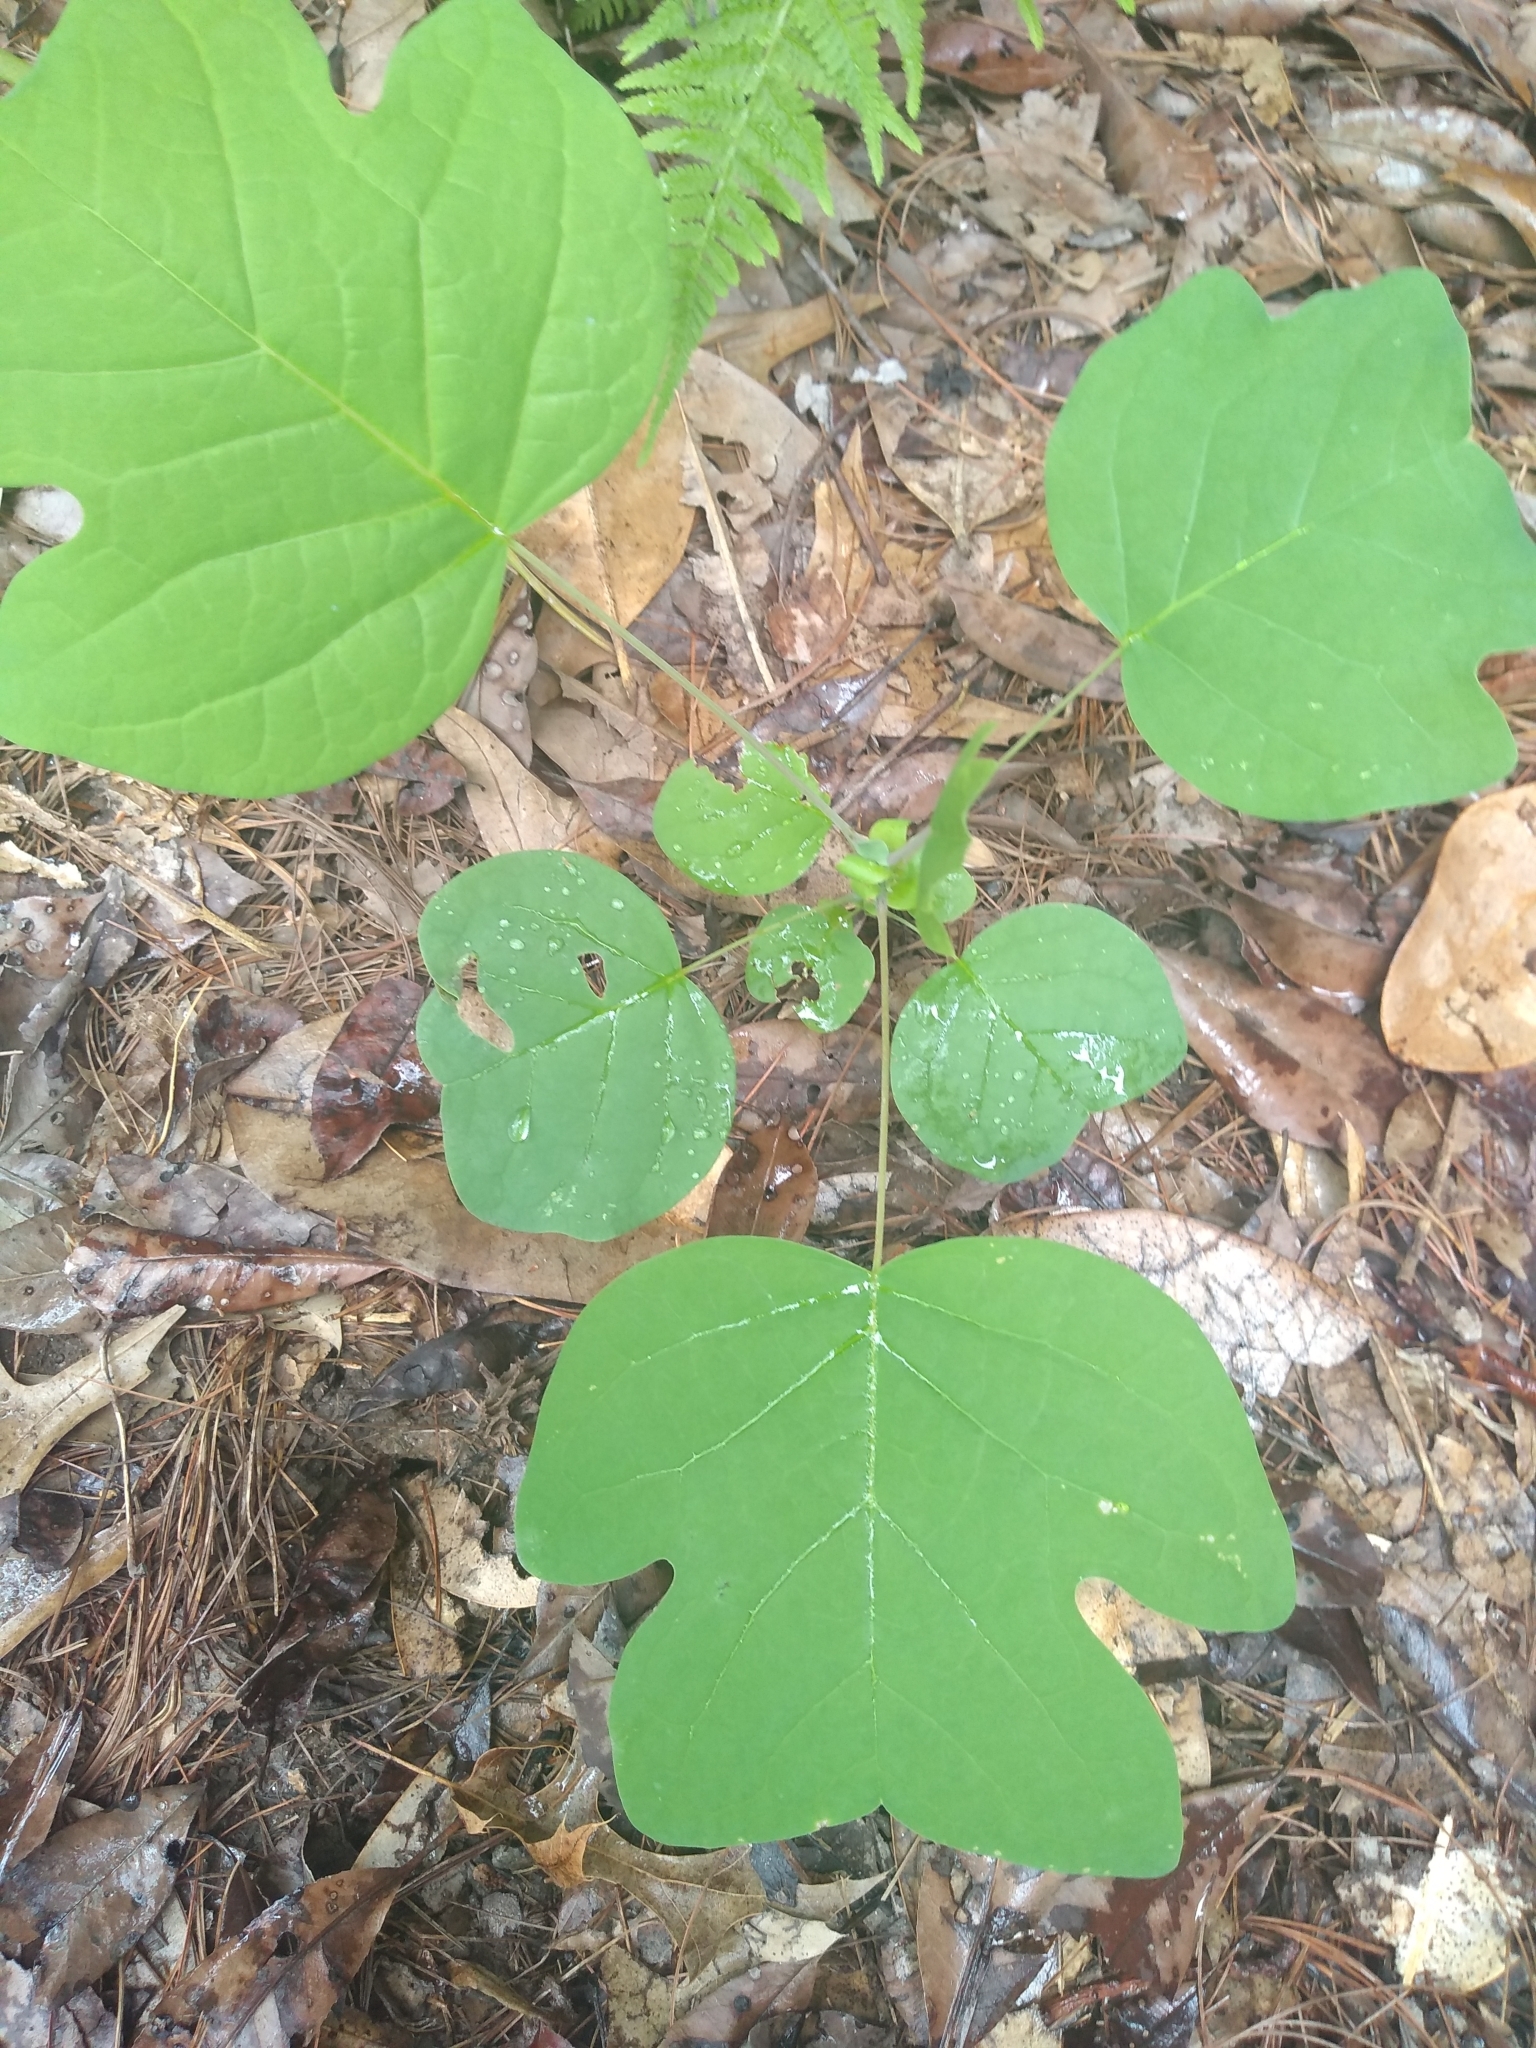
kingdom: Plantae
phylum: Tracheophyta
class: Magnoliopsida
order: Magnoliales
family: Magnoliaceae
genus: Liriodendron
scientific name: Liriodendron tulipifera
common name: Tulip tree
